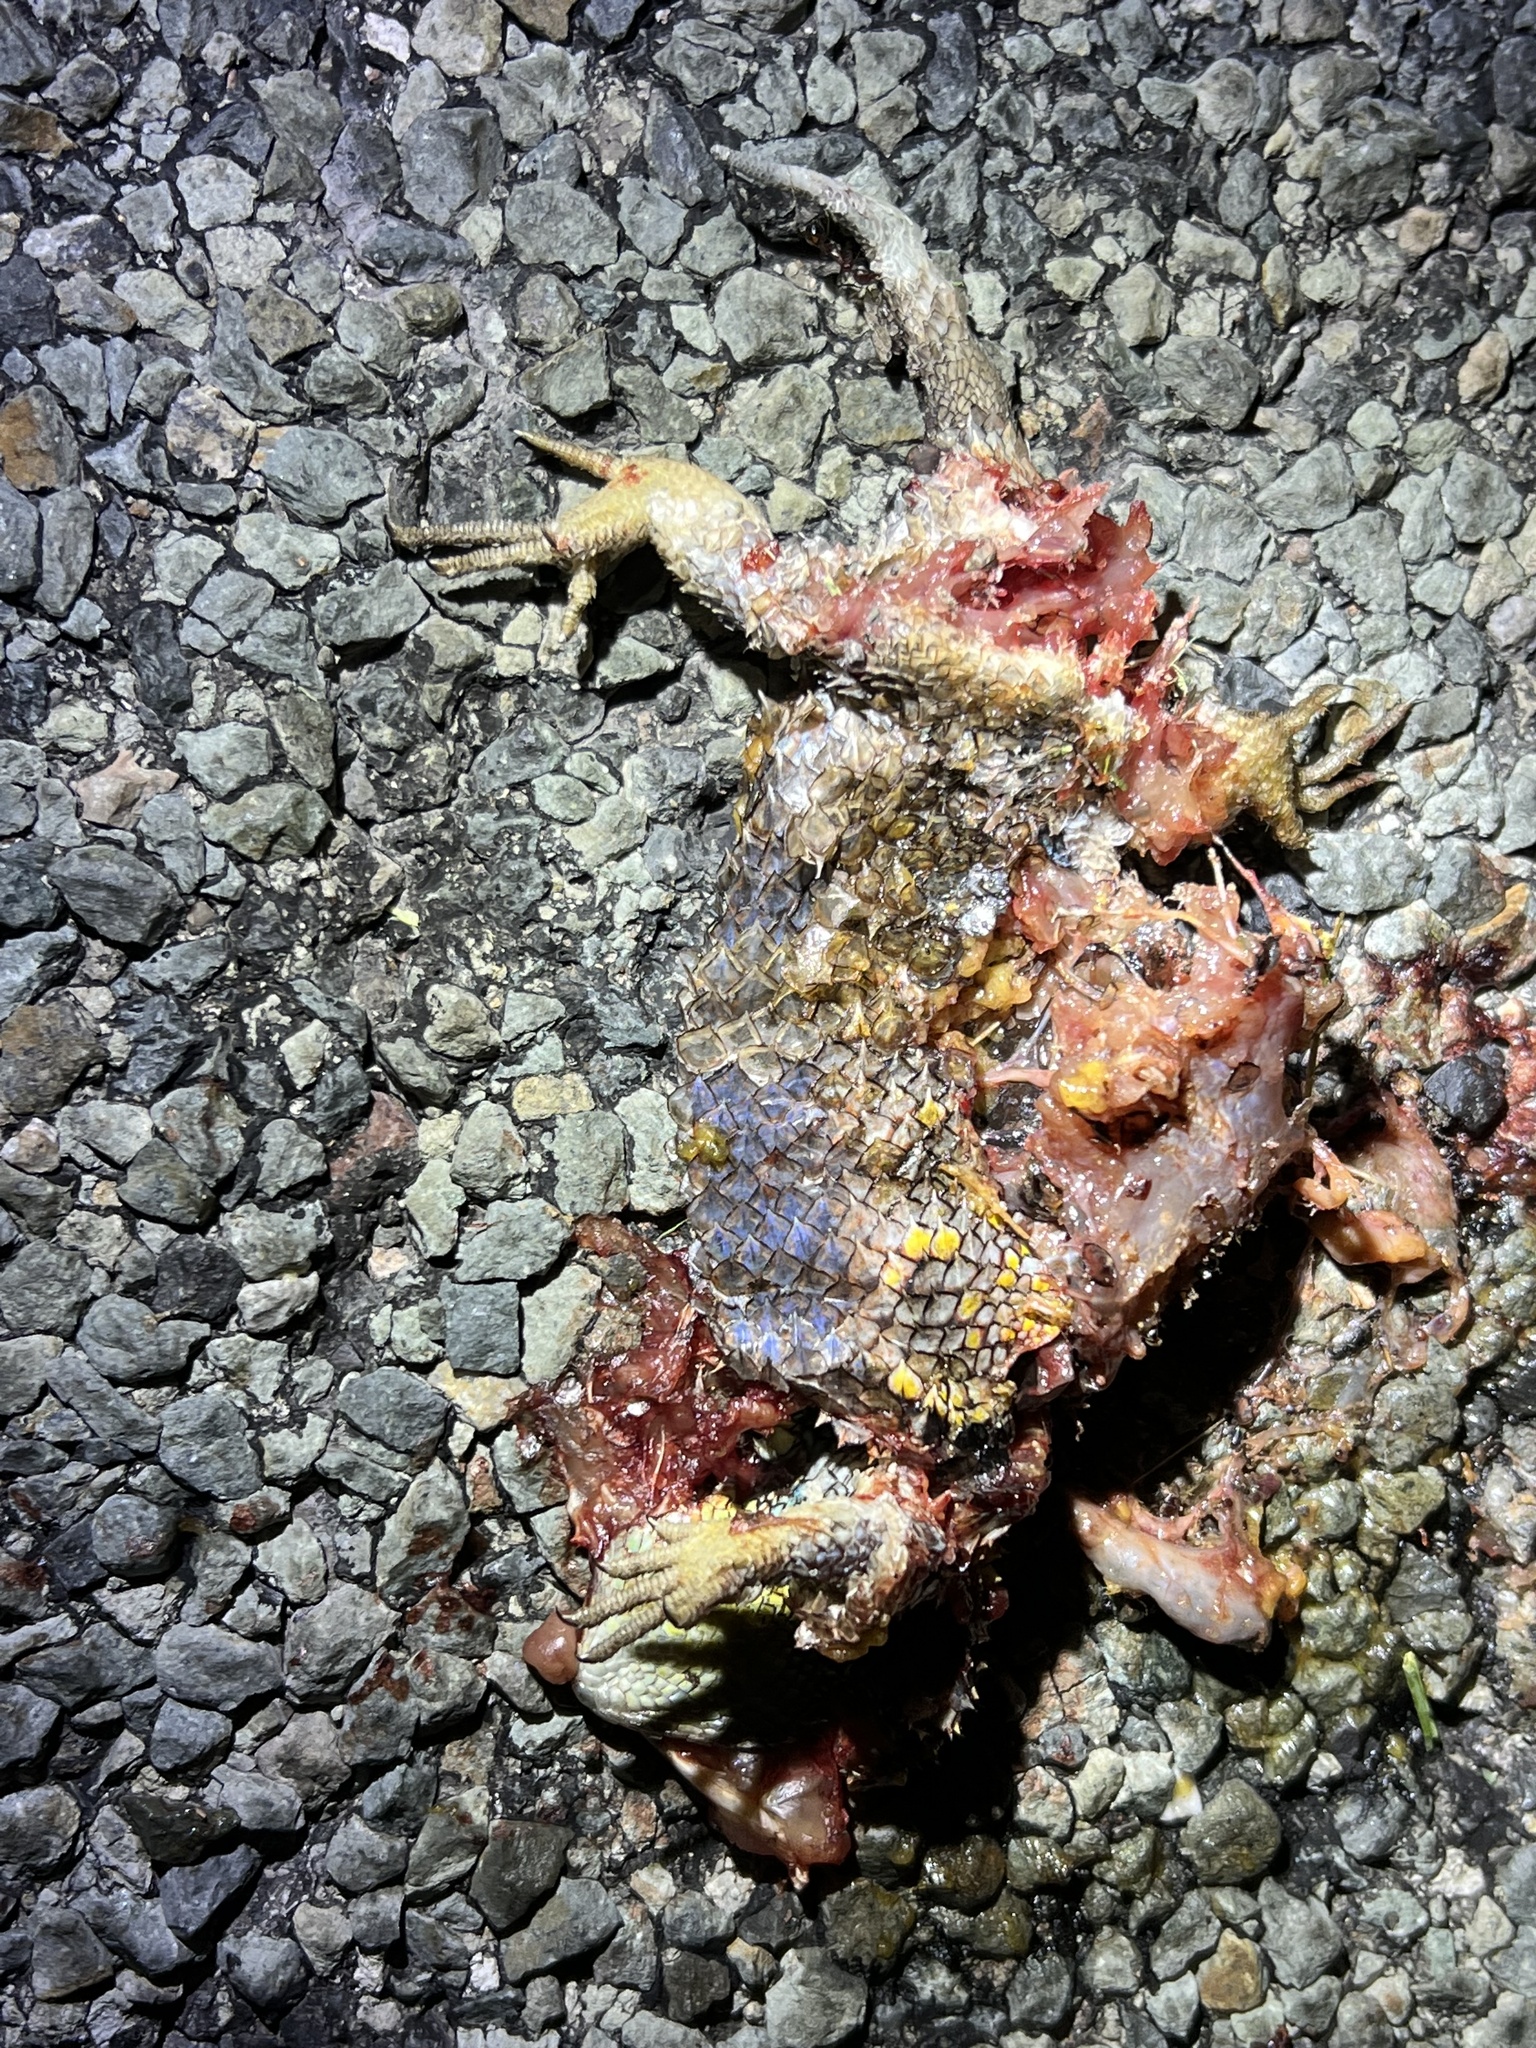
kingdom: Animalia
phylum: Chordata
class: Squamata
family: Phrynosomatidae
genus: Sceloporus
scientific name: Sceloporus bimaculosus
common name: Twin-spotted spiny lizard
